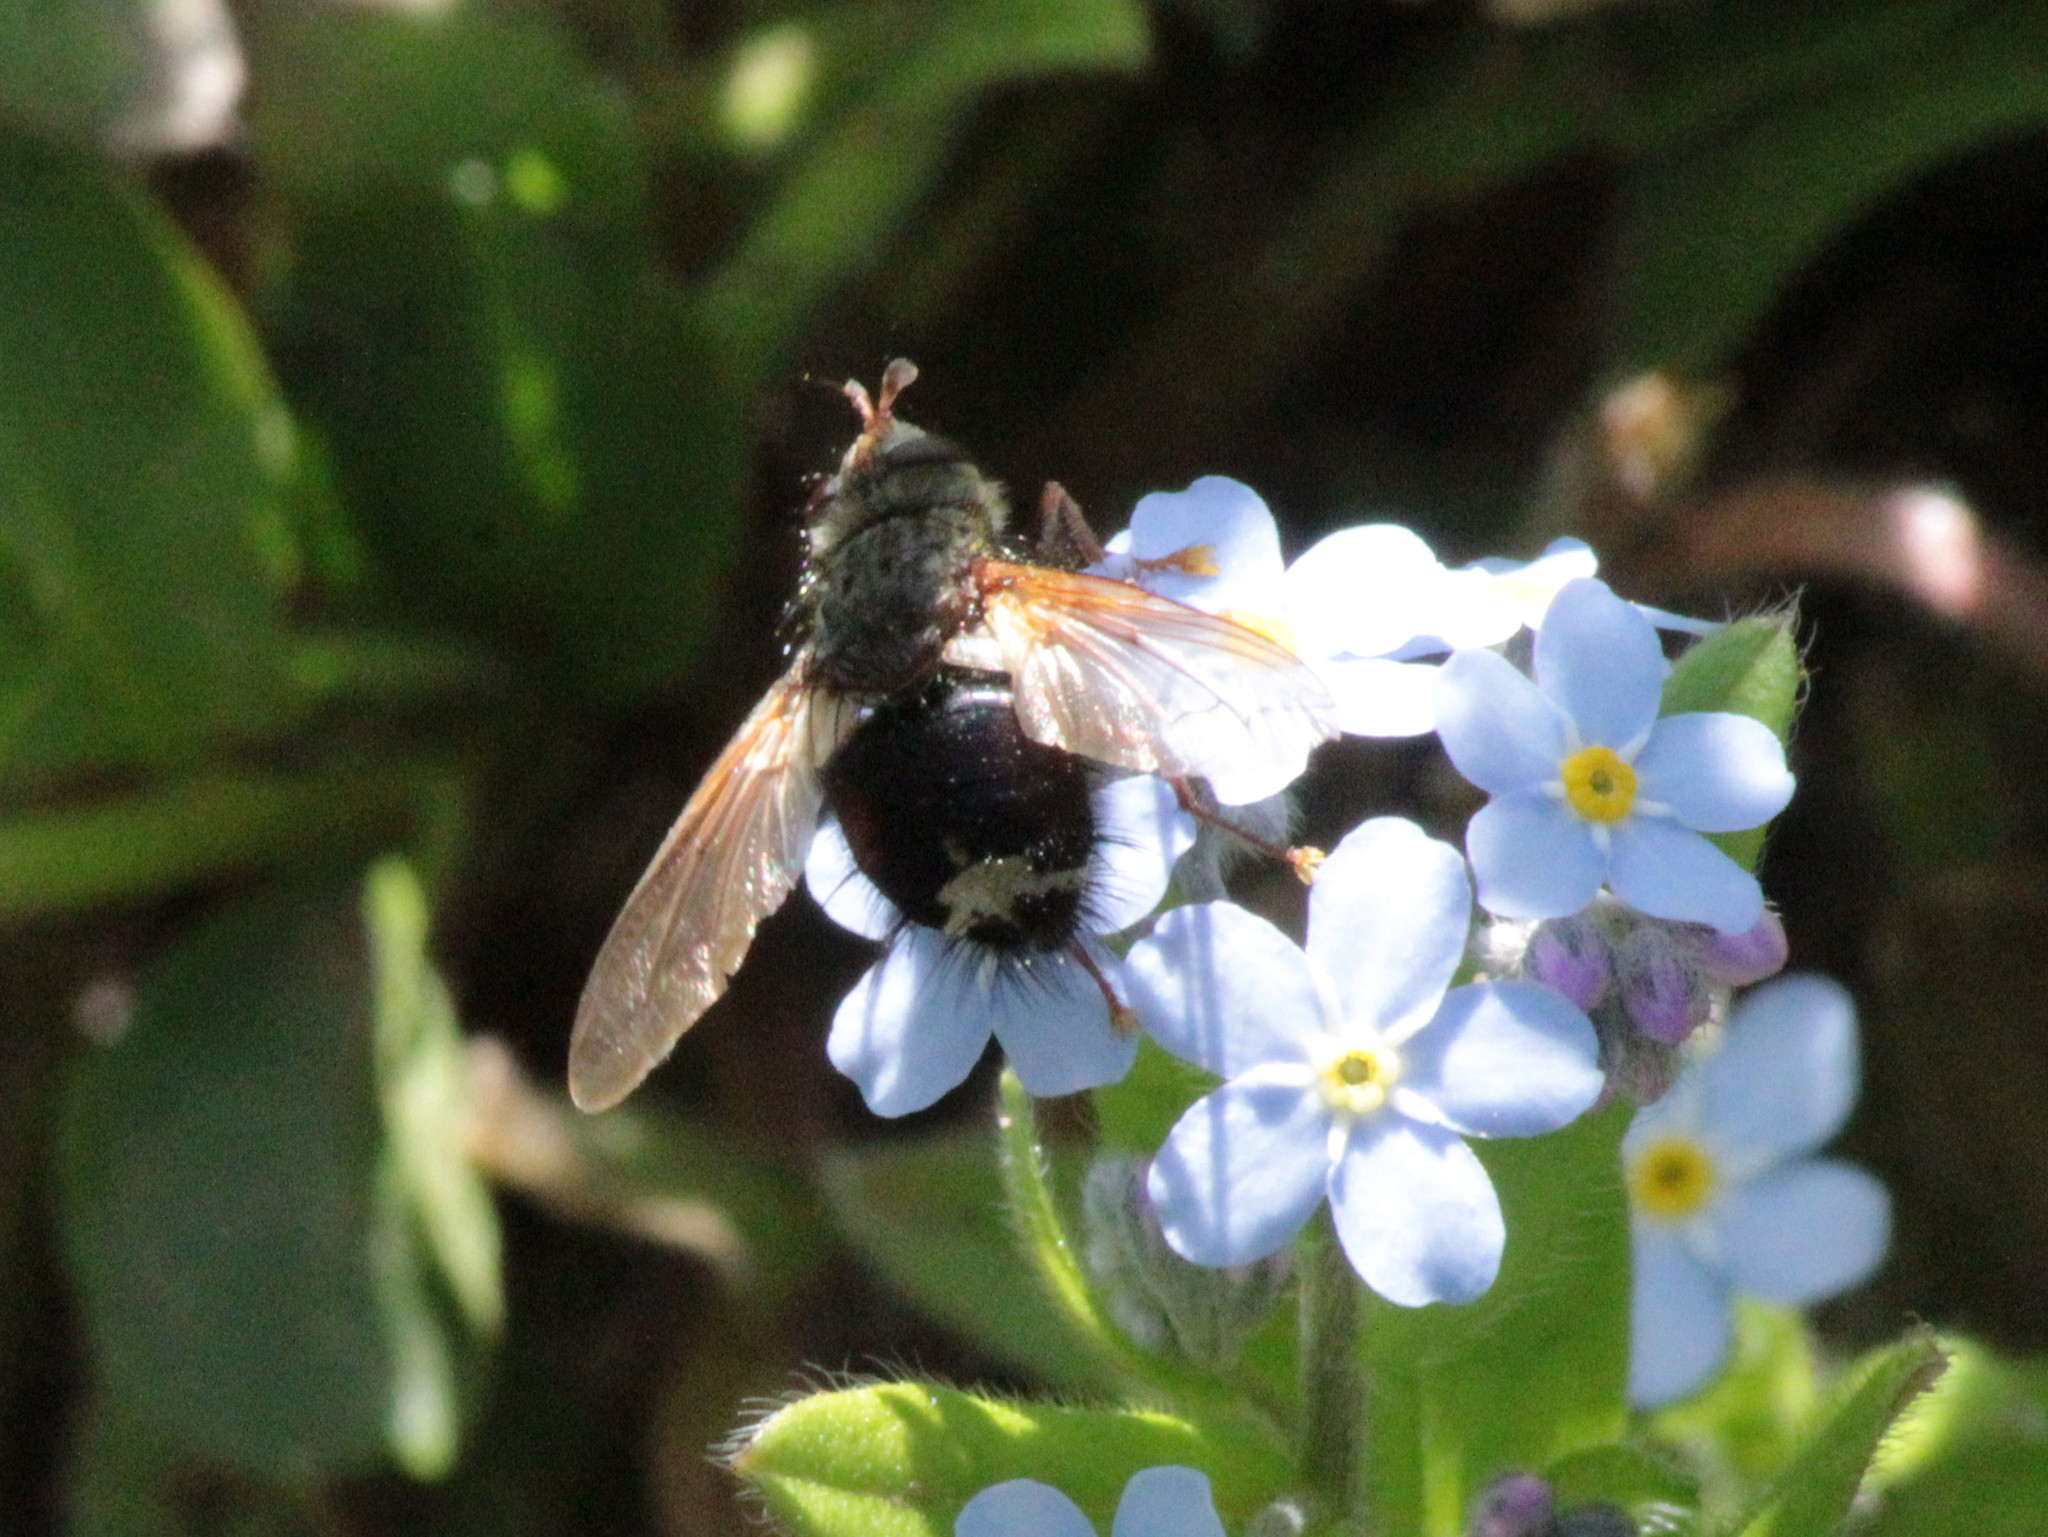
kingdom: Animalia
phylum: Arthropoda
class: Insecta
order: Diptera
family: Tachinidae
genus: Epalpus
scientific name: Epalpus signifer
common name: Early tachinid fly
